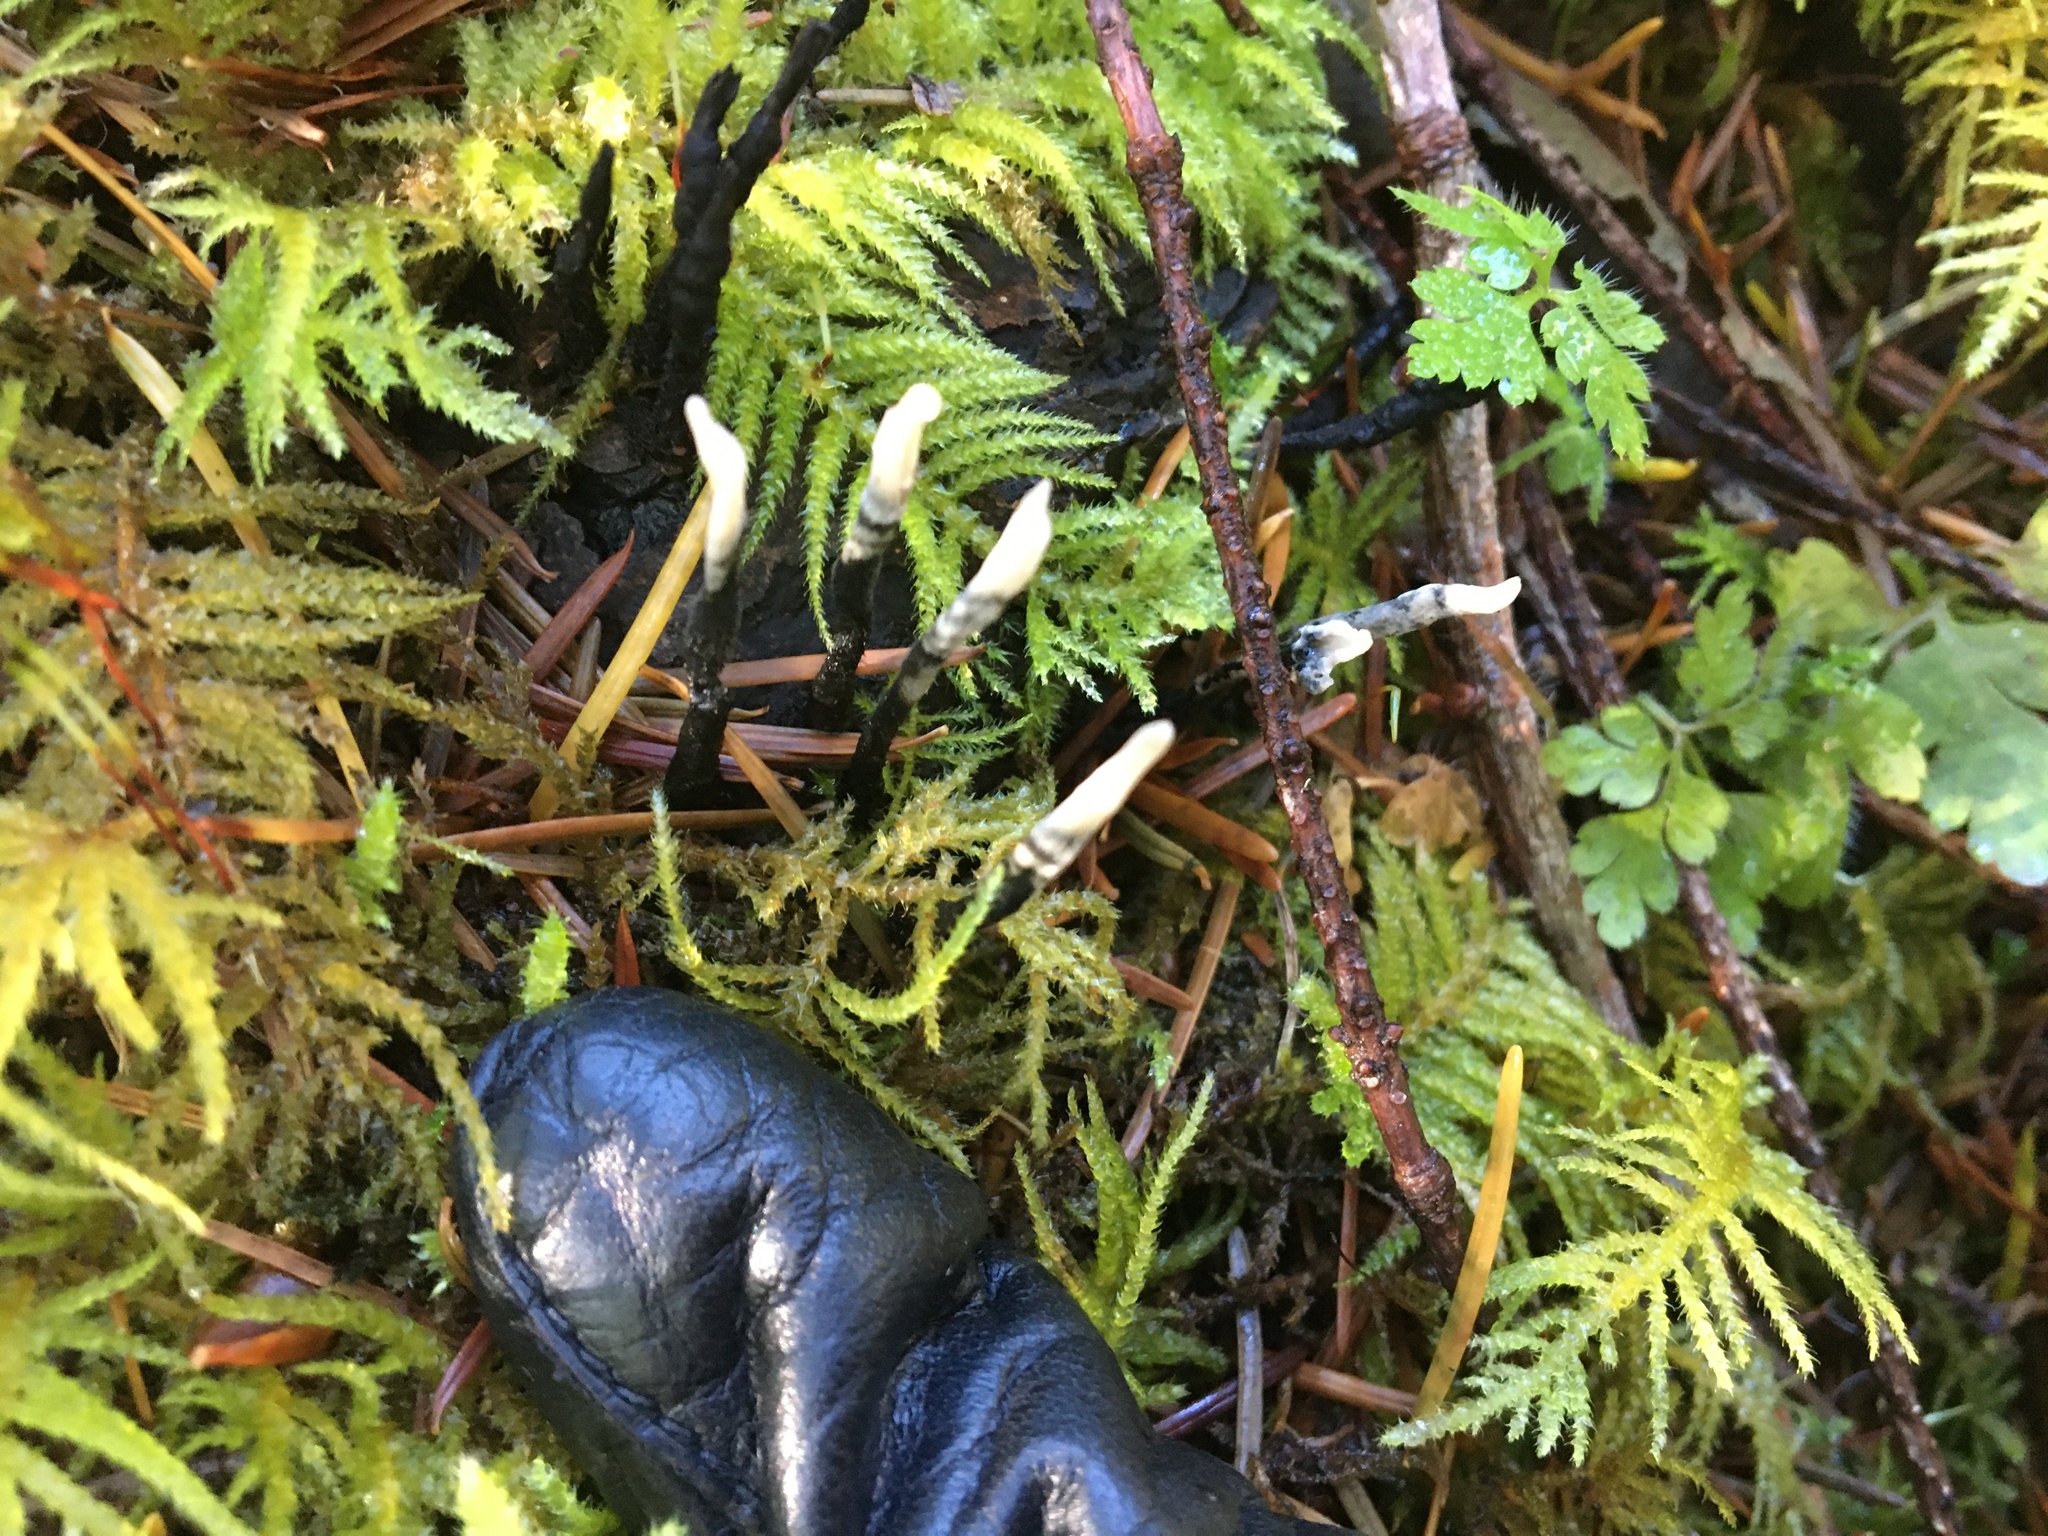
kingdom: Fungi
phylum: Ascomycota
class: Sordariomycetes
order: Xylariales
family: Xylariaceae
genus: Xylaria
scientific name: Xylaria hypoxylon
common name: Candle-snuff fungus
